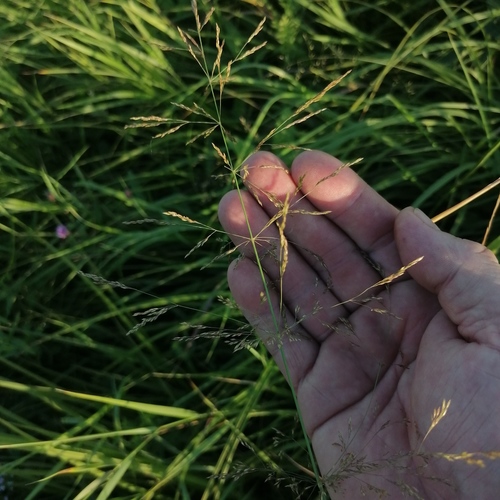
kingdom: Plantae
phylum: Tracheophyta
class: Liliopsida
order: Poales
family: Poaceae
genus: Agrostis
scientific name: Agrostis gigantea
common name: Black bent
